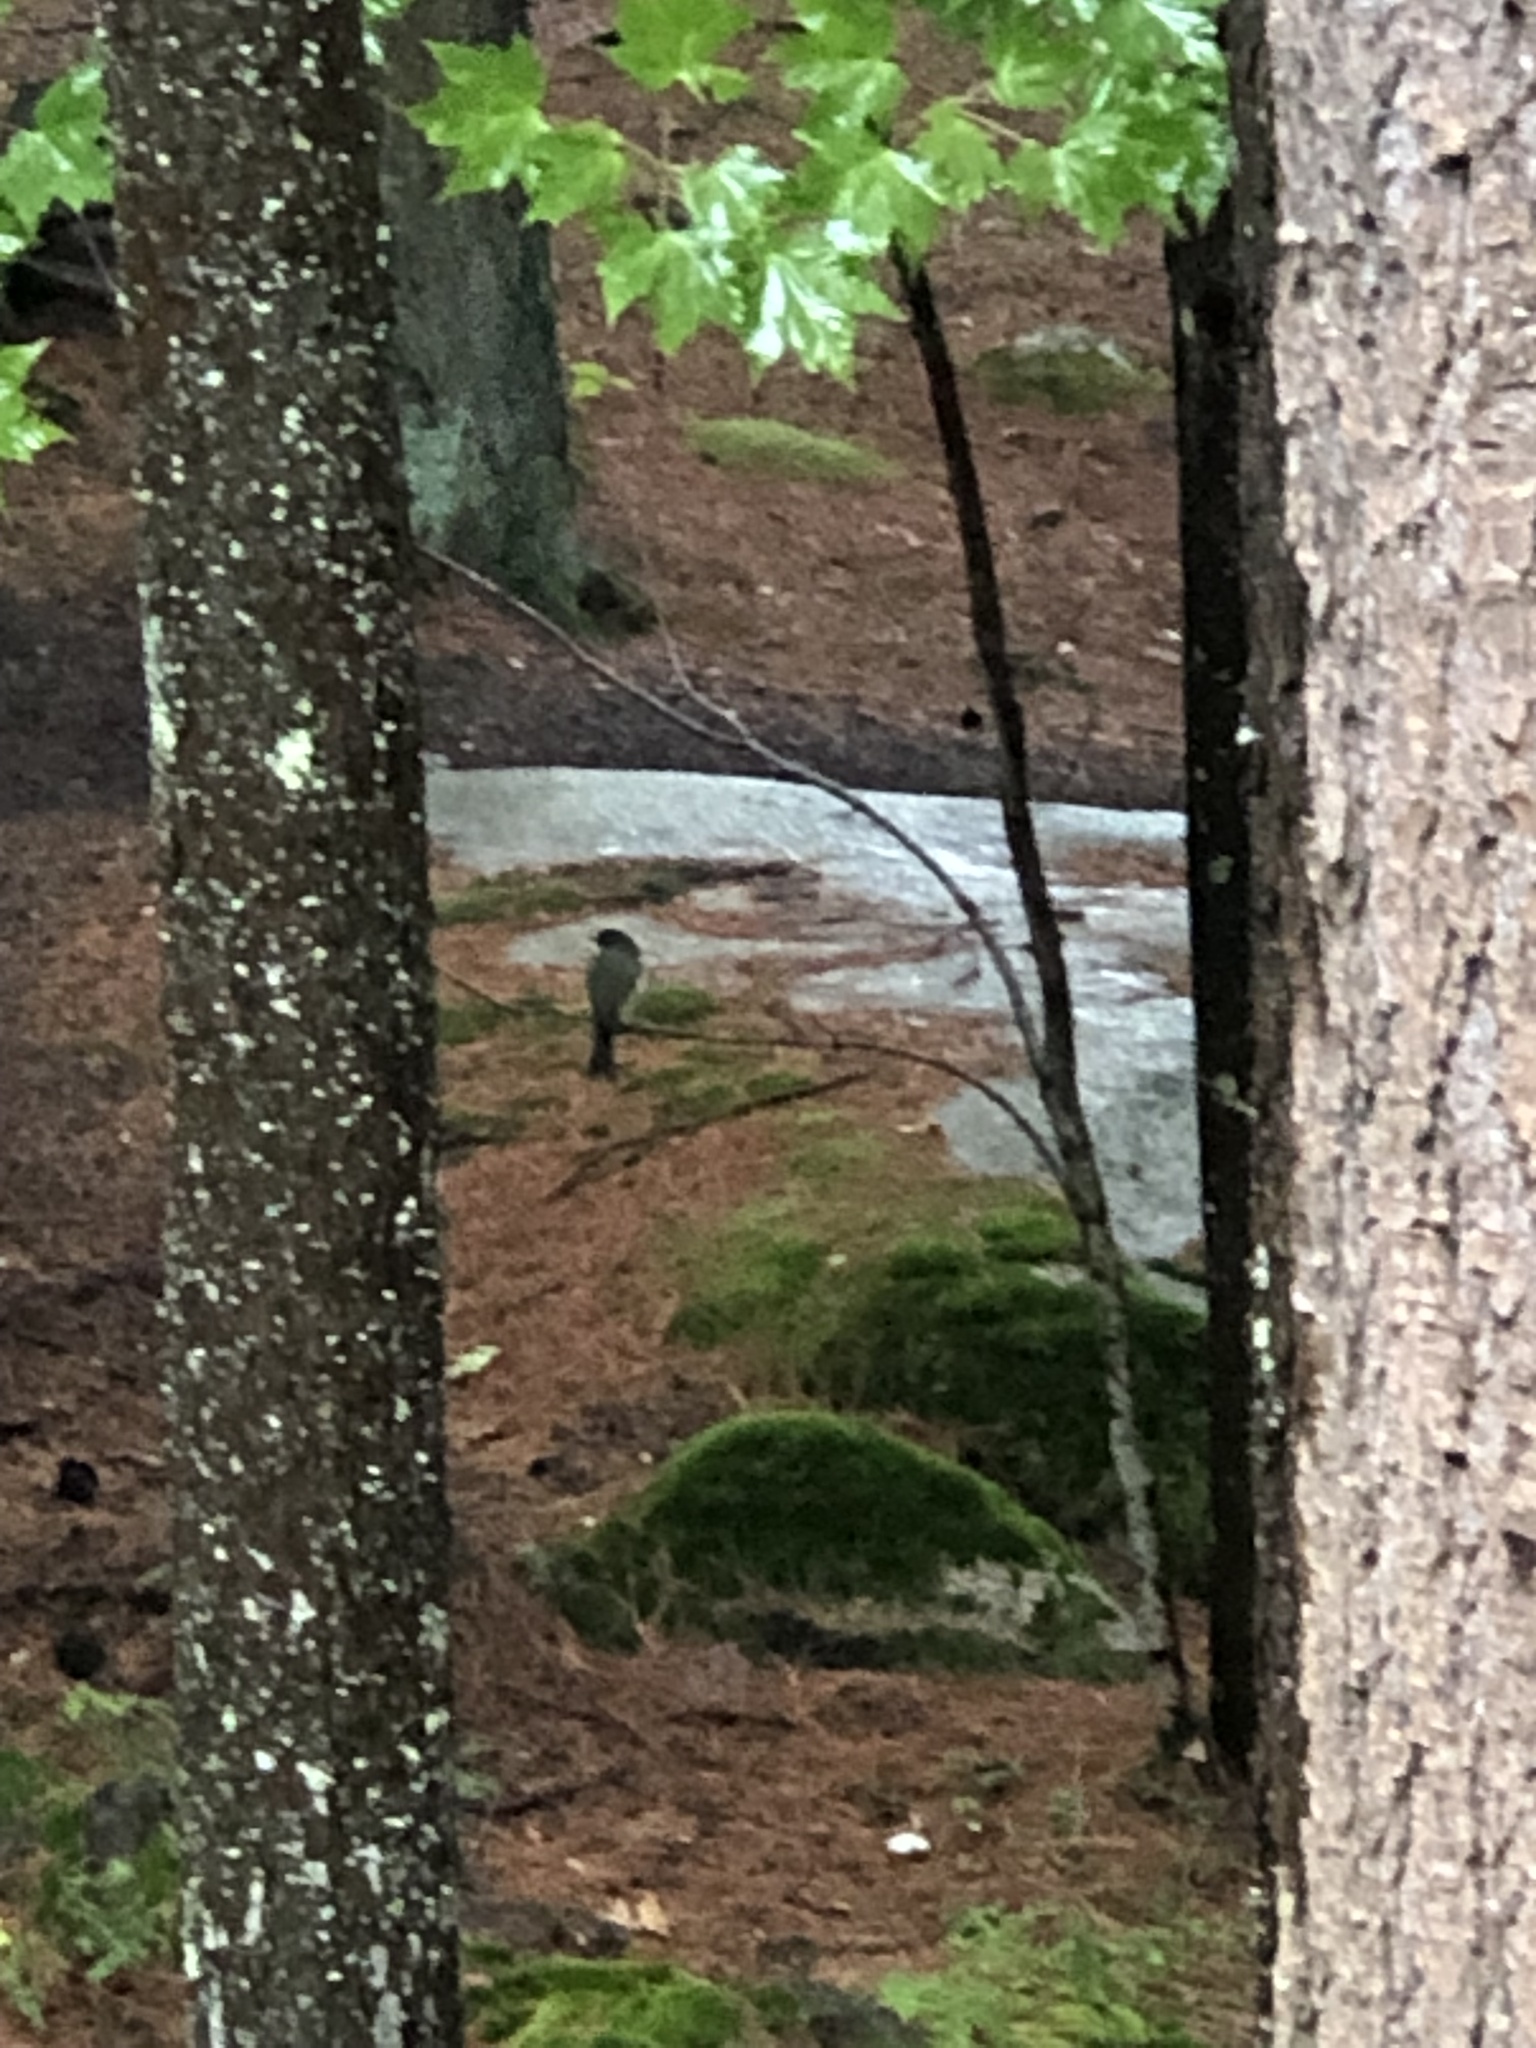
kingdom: Animalia
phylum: Chordata
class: Aves
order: Passeriformes
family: Tyrannidae
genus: Sayornis
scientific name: Sayornis phoebe
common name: Eastern phoebe
